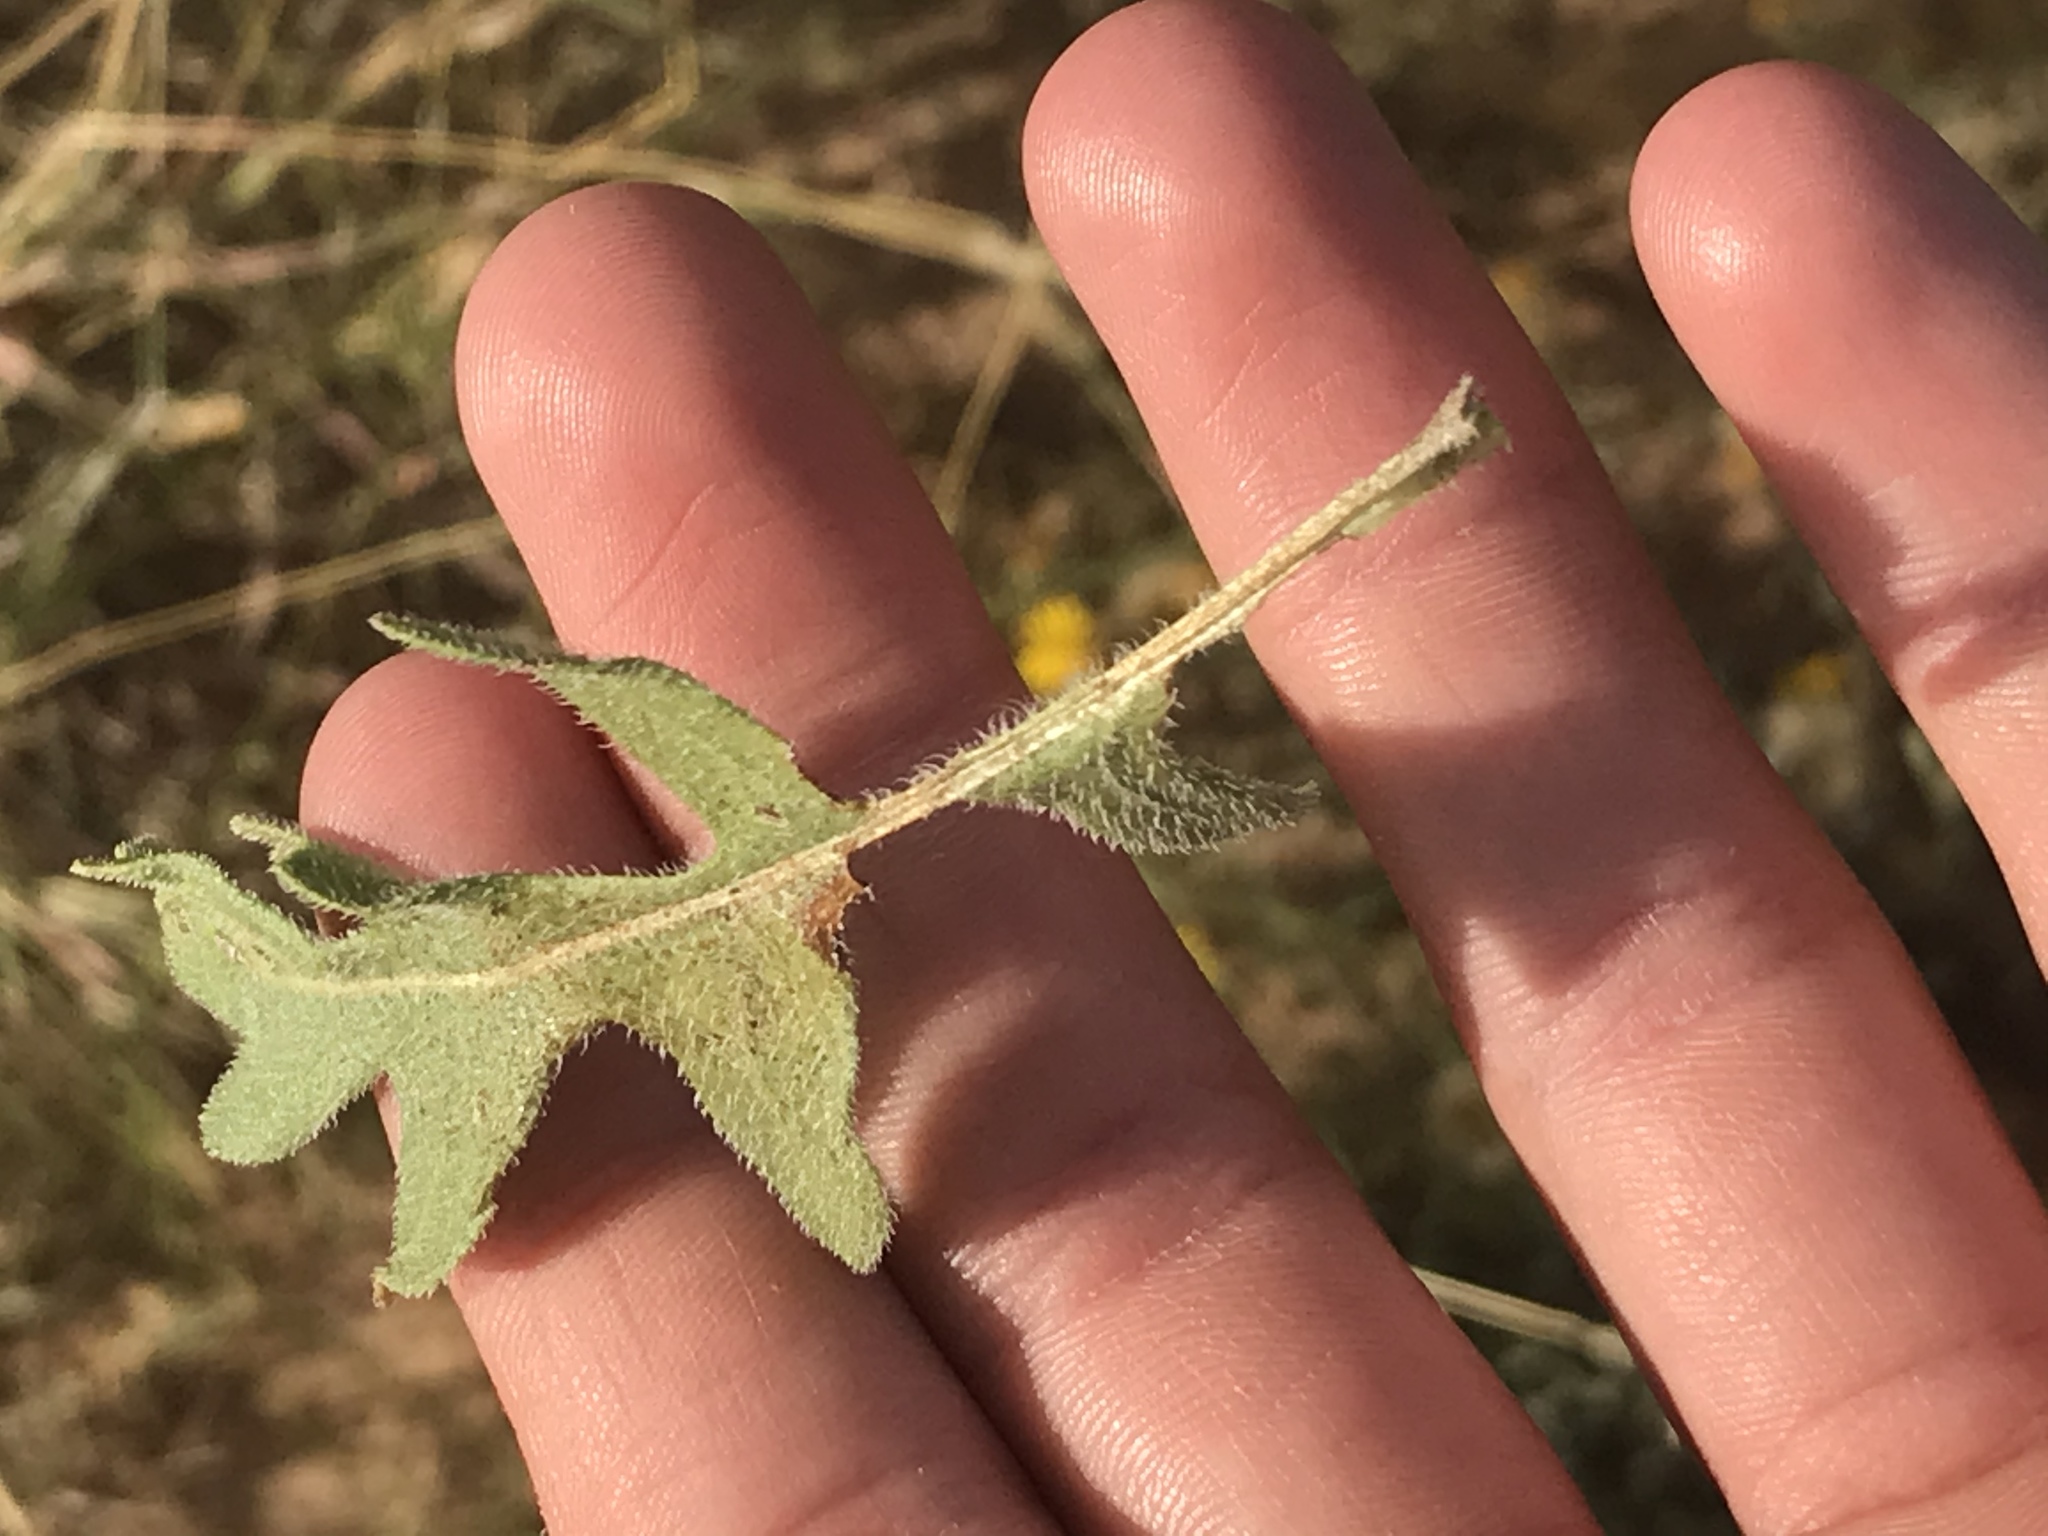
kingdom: Plantae
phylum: Tracheophyta
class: Magnoliopsida
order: Asterales
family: Asteraceae
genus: Heterotheca
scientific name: Heterotheca canescens
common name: Hoary golden-aster
